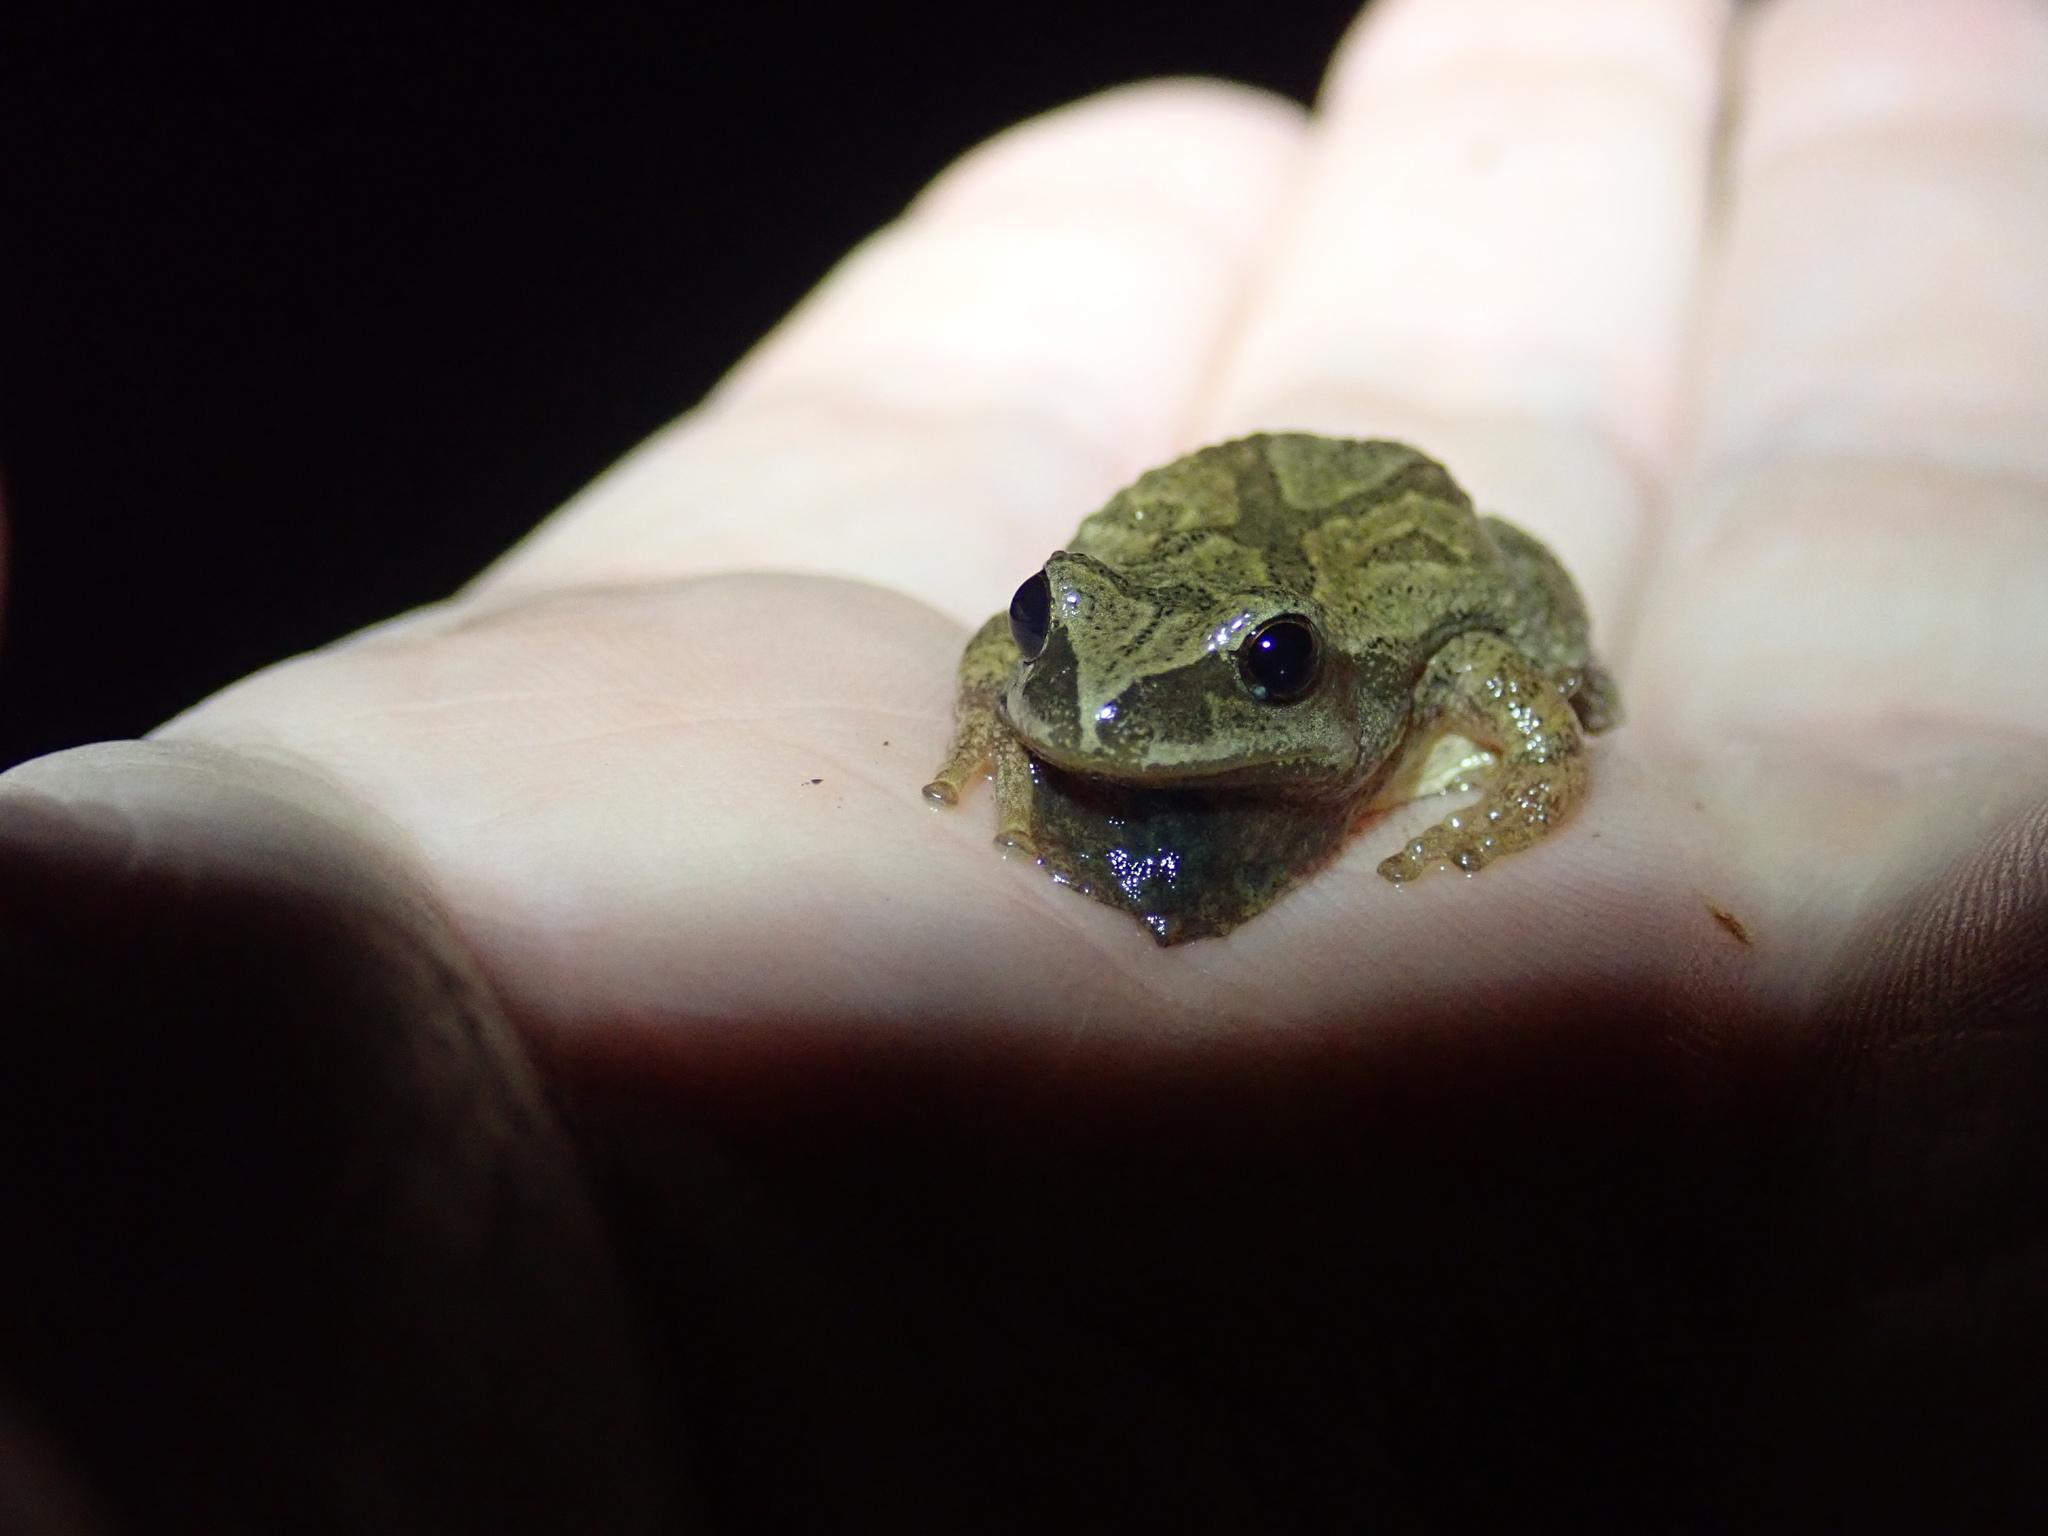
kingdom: Animalia
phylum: Chordata
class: Amphibia
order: Anura
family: Hylidae
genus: Pseudacris
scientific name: Pseudacris crucifer
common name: Spring peeper
